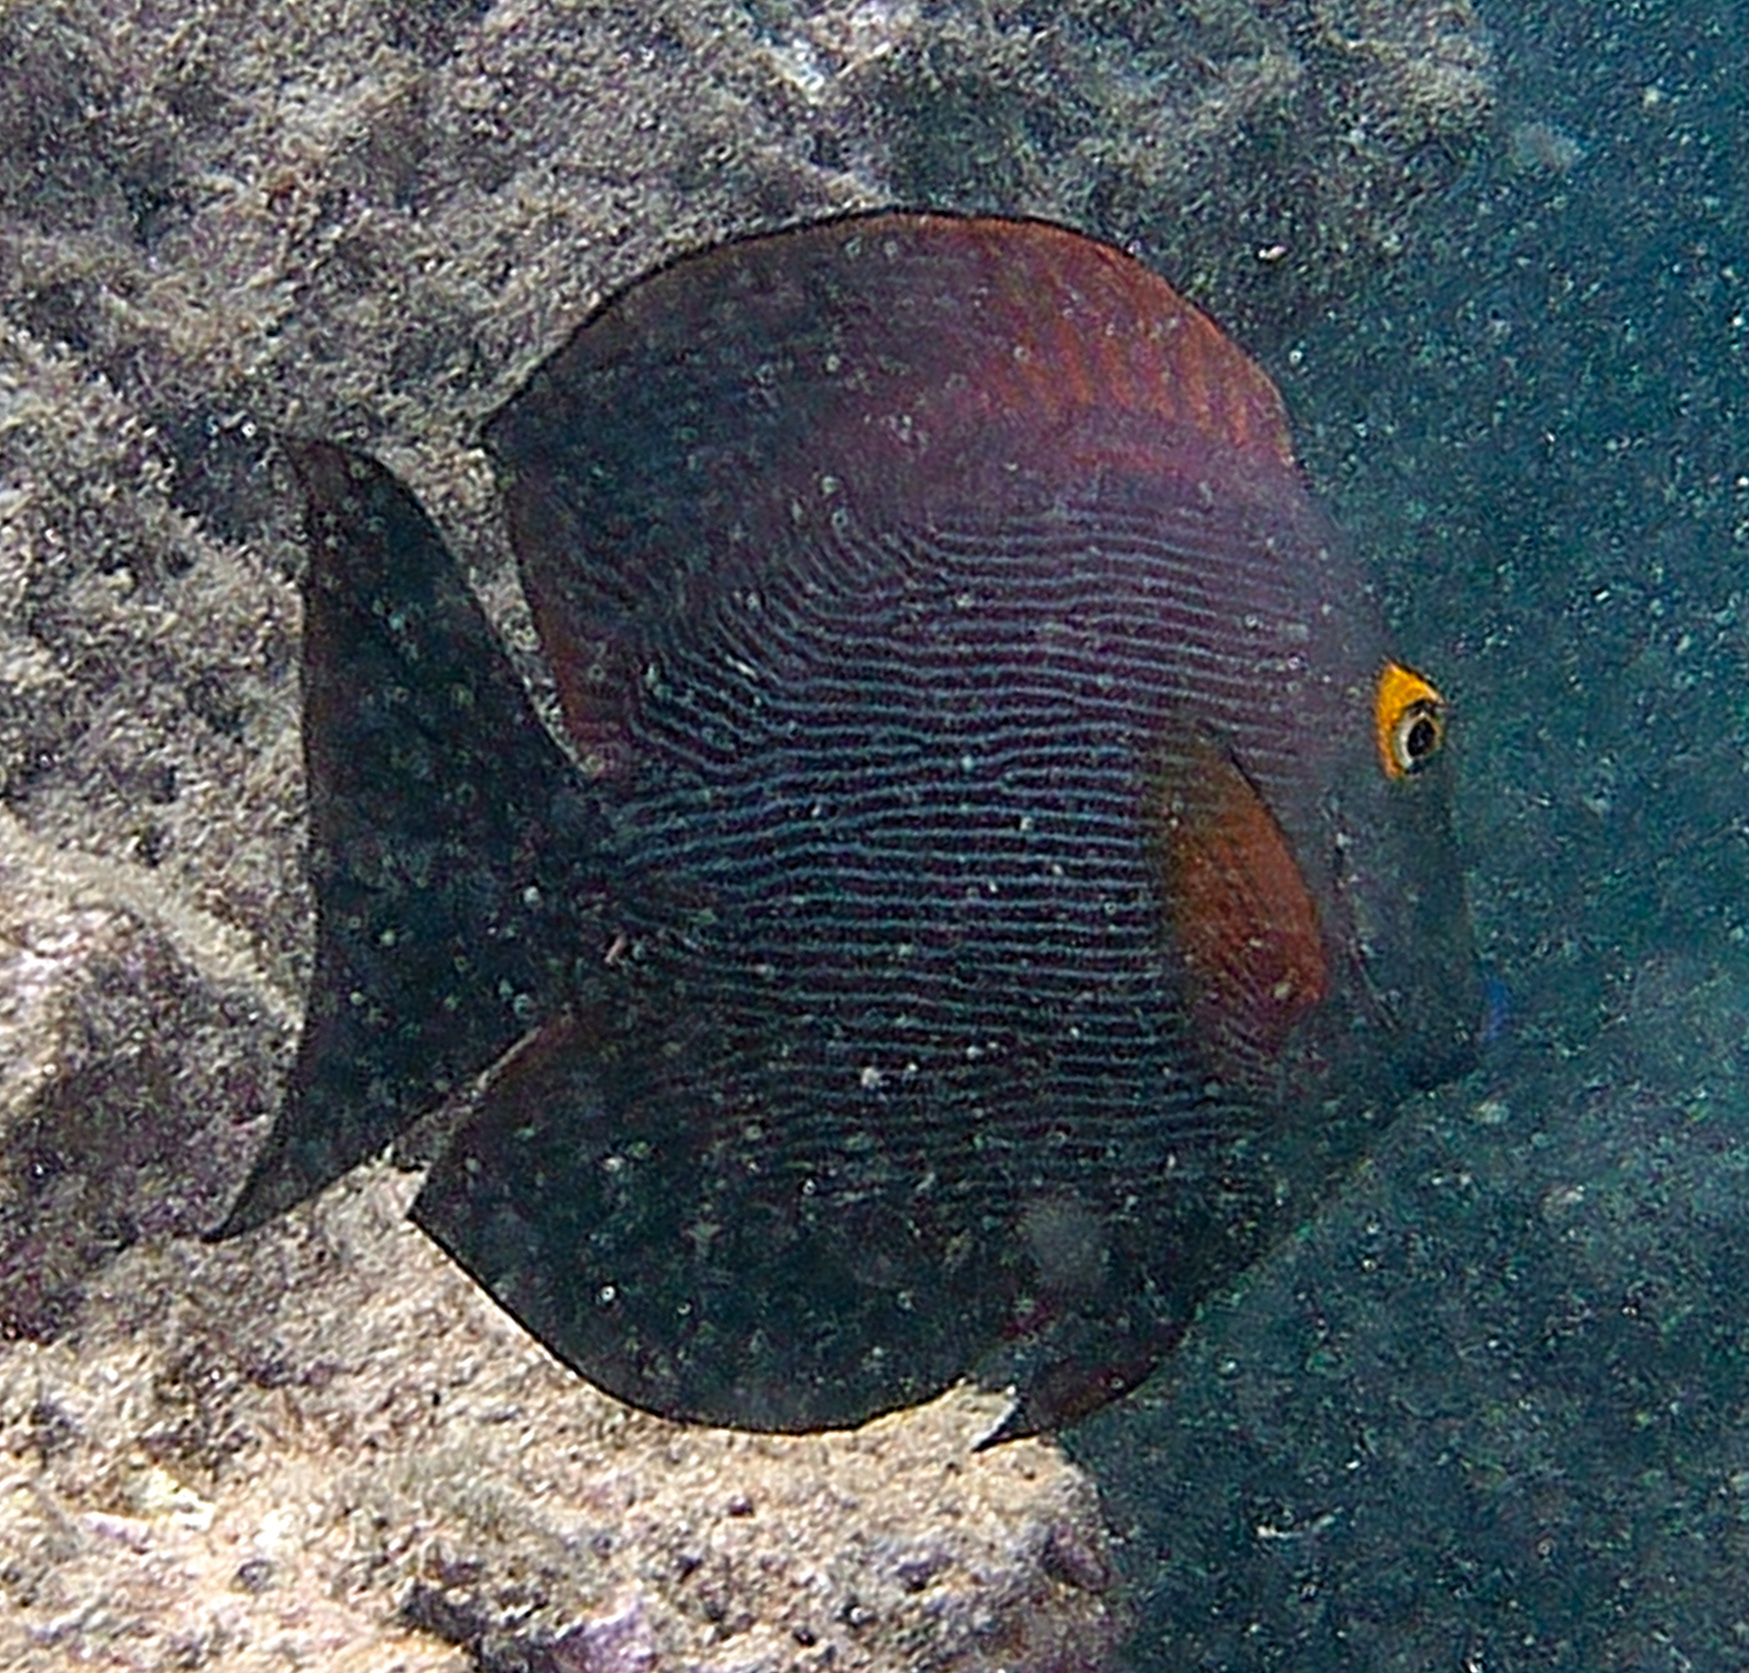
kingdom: Animalia
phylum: Chordata
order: Perciformes
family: Acanthuridae
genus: Ctenochaetus
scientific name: Ctenochaetus strigosus
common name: Bristletoothed surgeonfish
